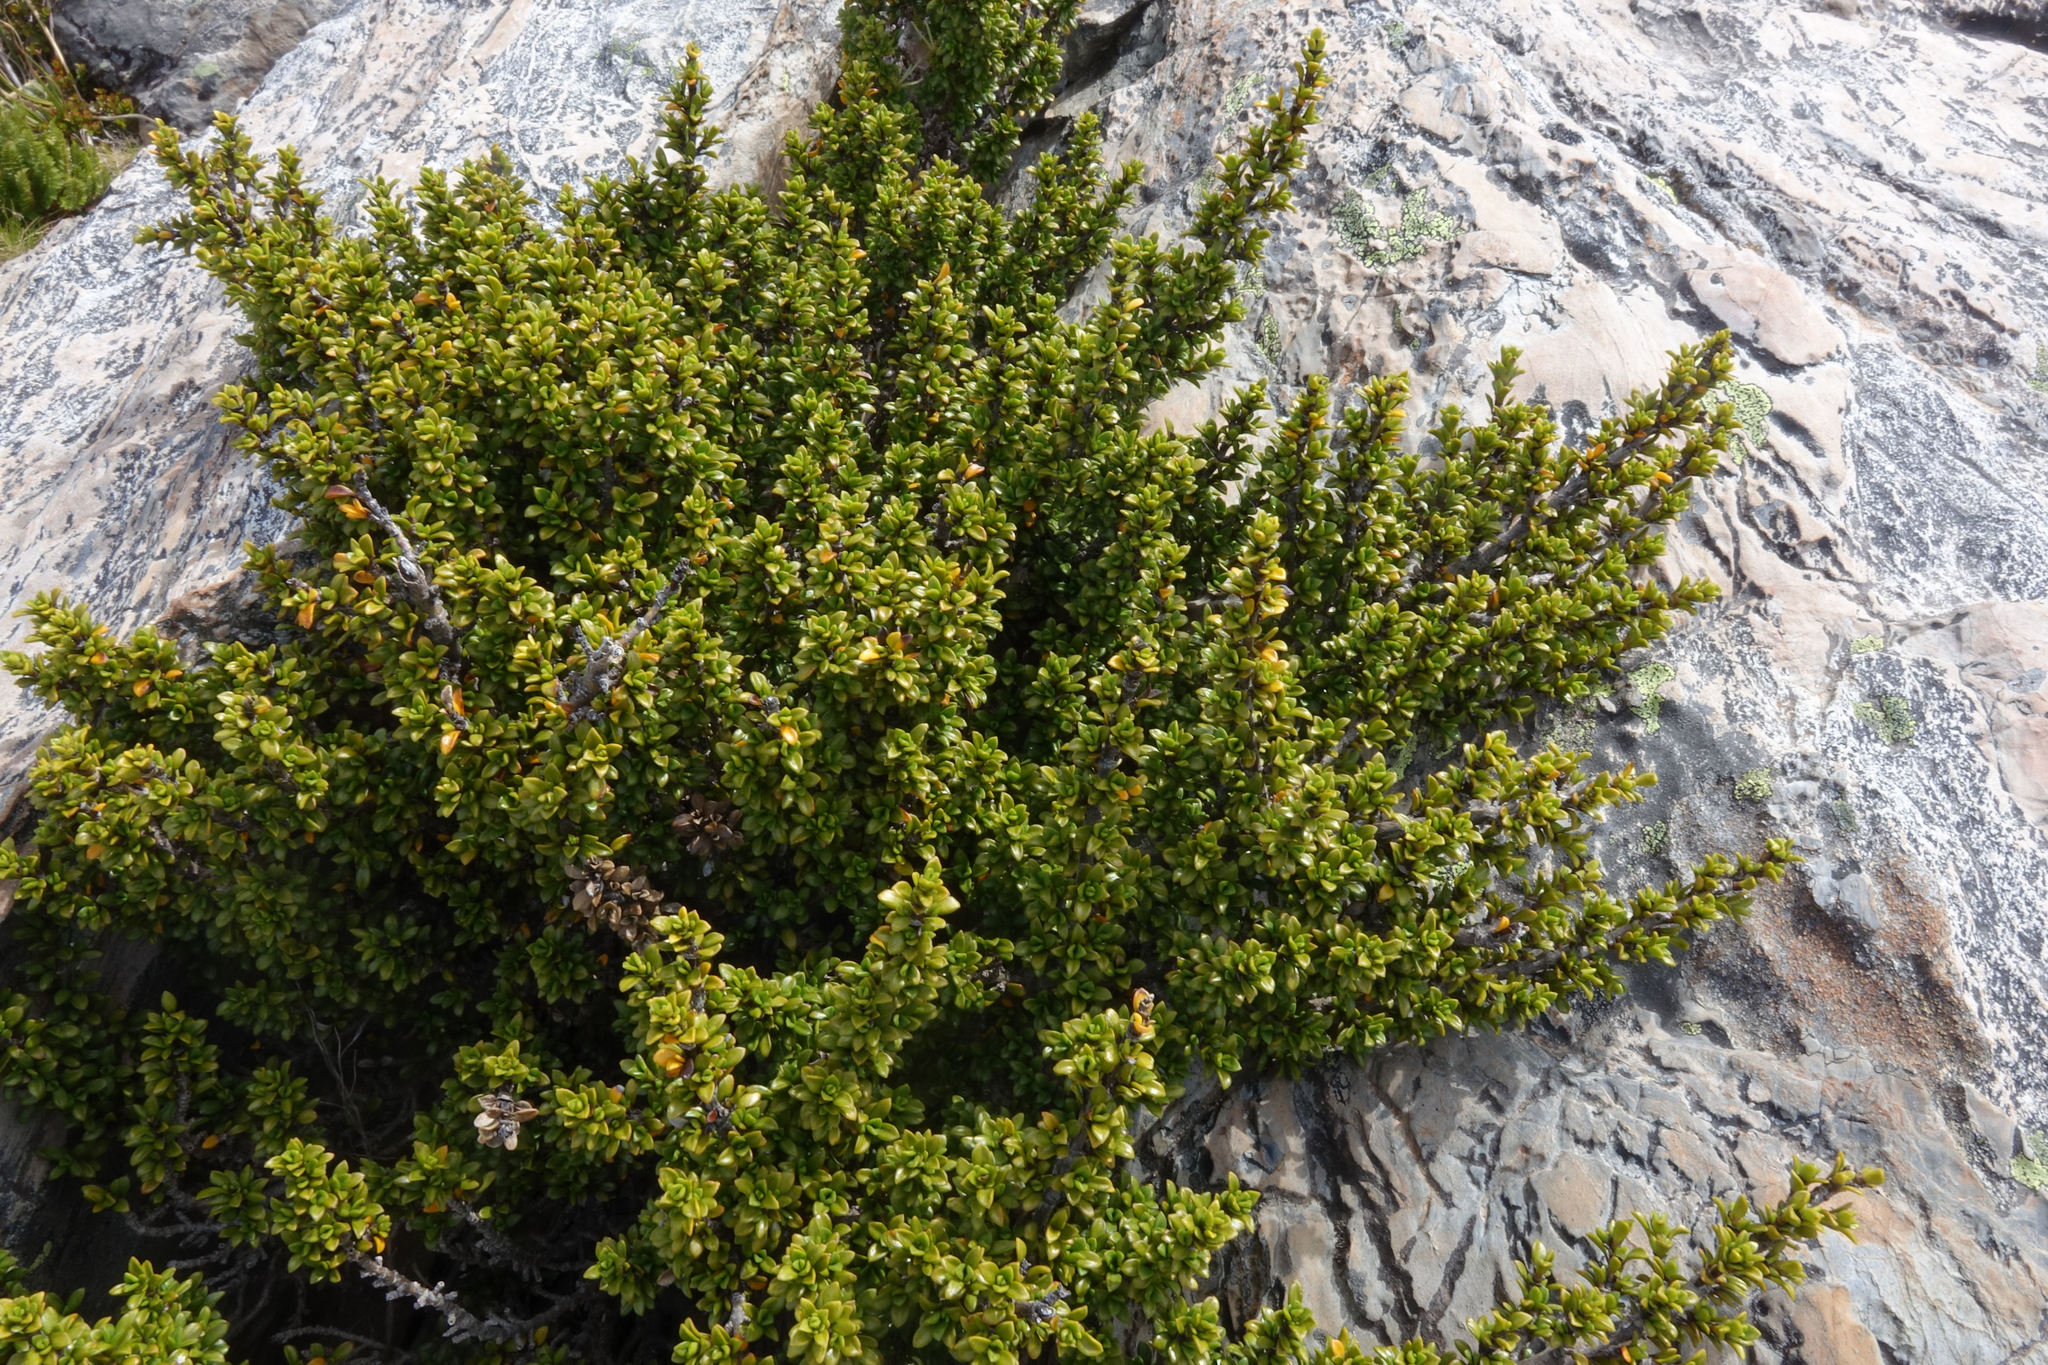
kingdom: Plantae
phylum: Tracheophyta
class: Magnoliopsida
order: Gentianales
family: Rubiaceae
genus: Coprosma
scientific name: Coprosma fowerakeri
